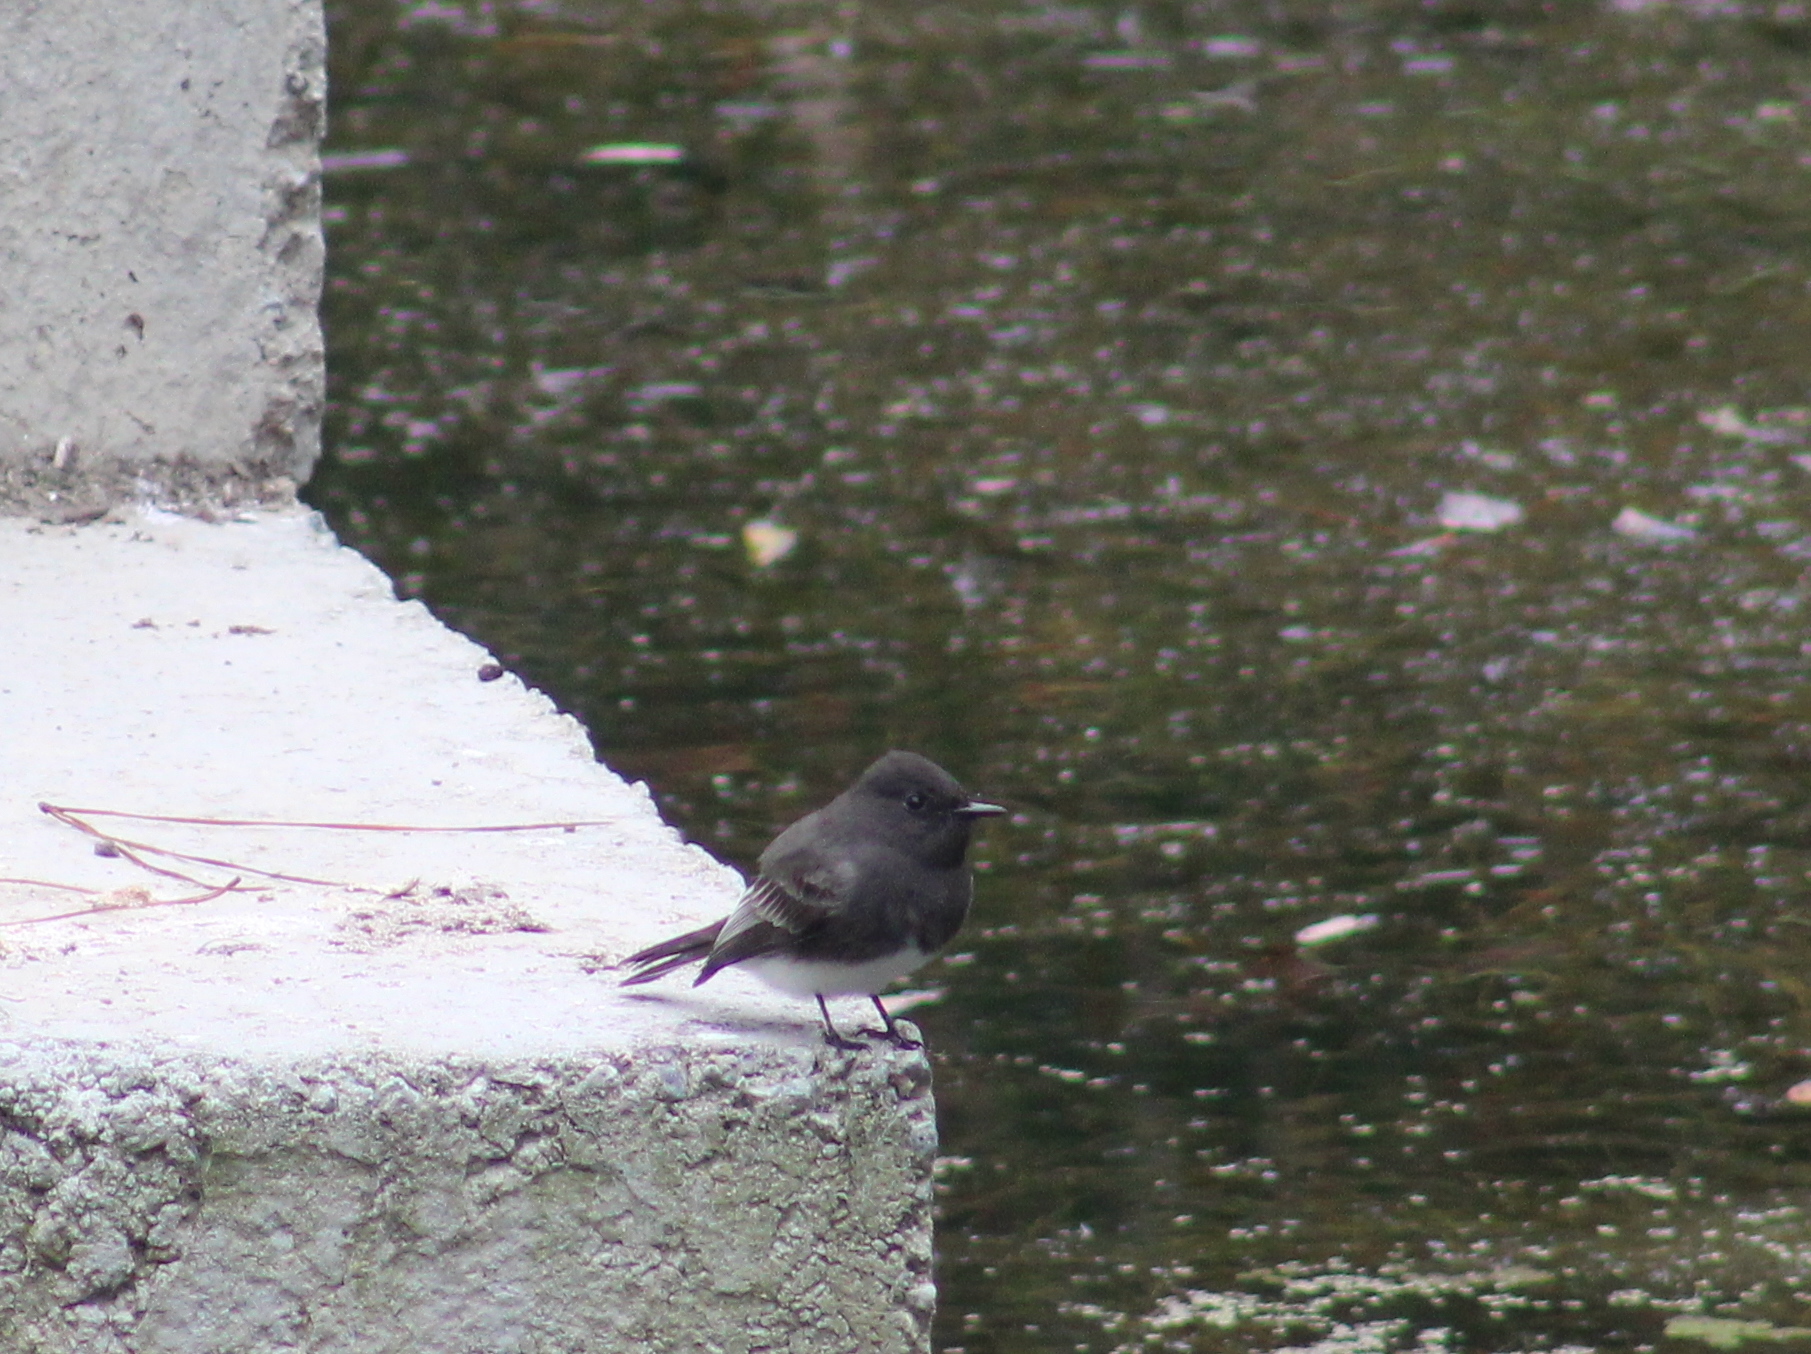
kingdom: Animalia
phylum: Chordata
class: Aves
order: Passeriformes
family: Tyrannidae
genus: Sayornis
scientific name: Sayornis nigricans
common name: Black phoebe
